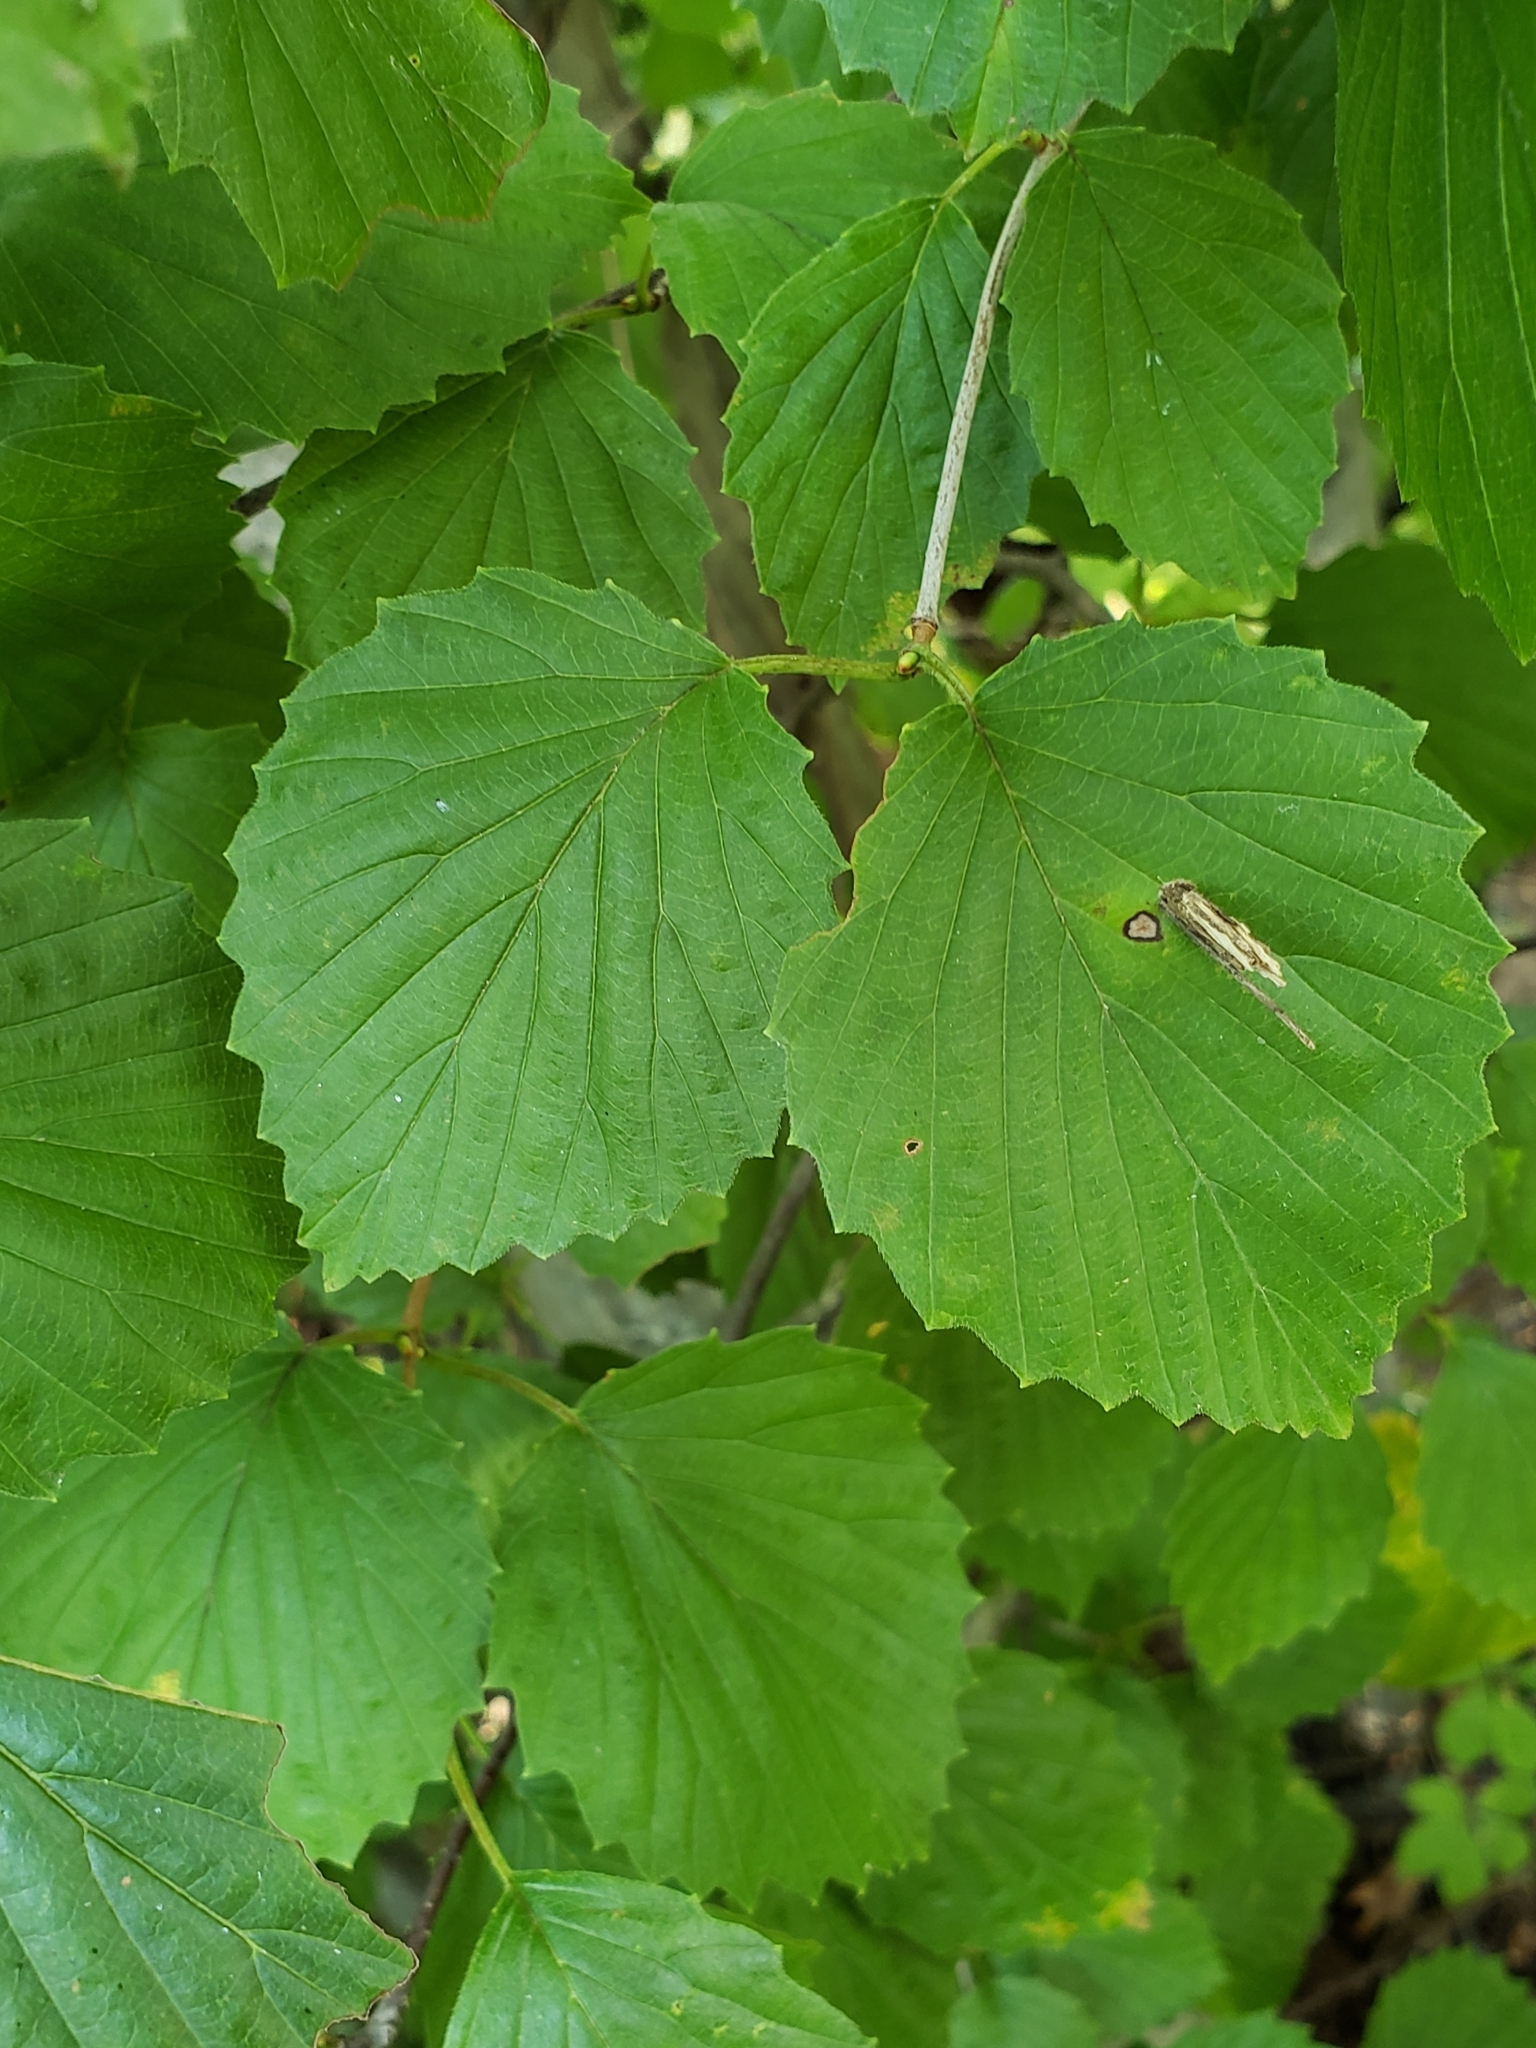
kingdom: Animalia
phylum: Arthropoda
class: Insecta
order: Lepidoptera
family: Psychidae
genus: Psyche
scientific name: Psyche casta
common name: Common sweep
